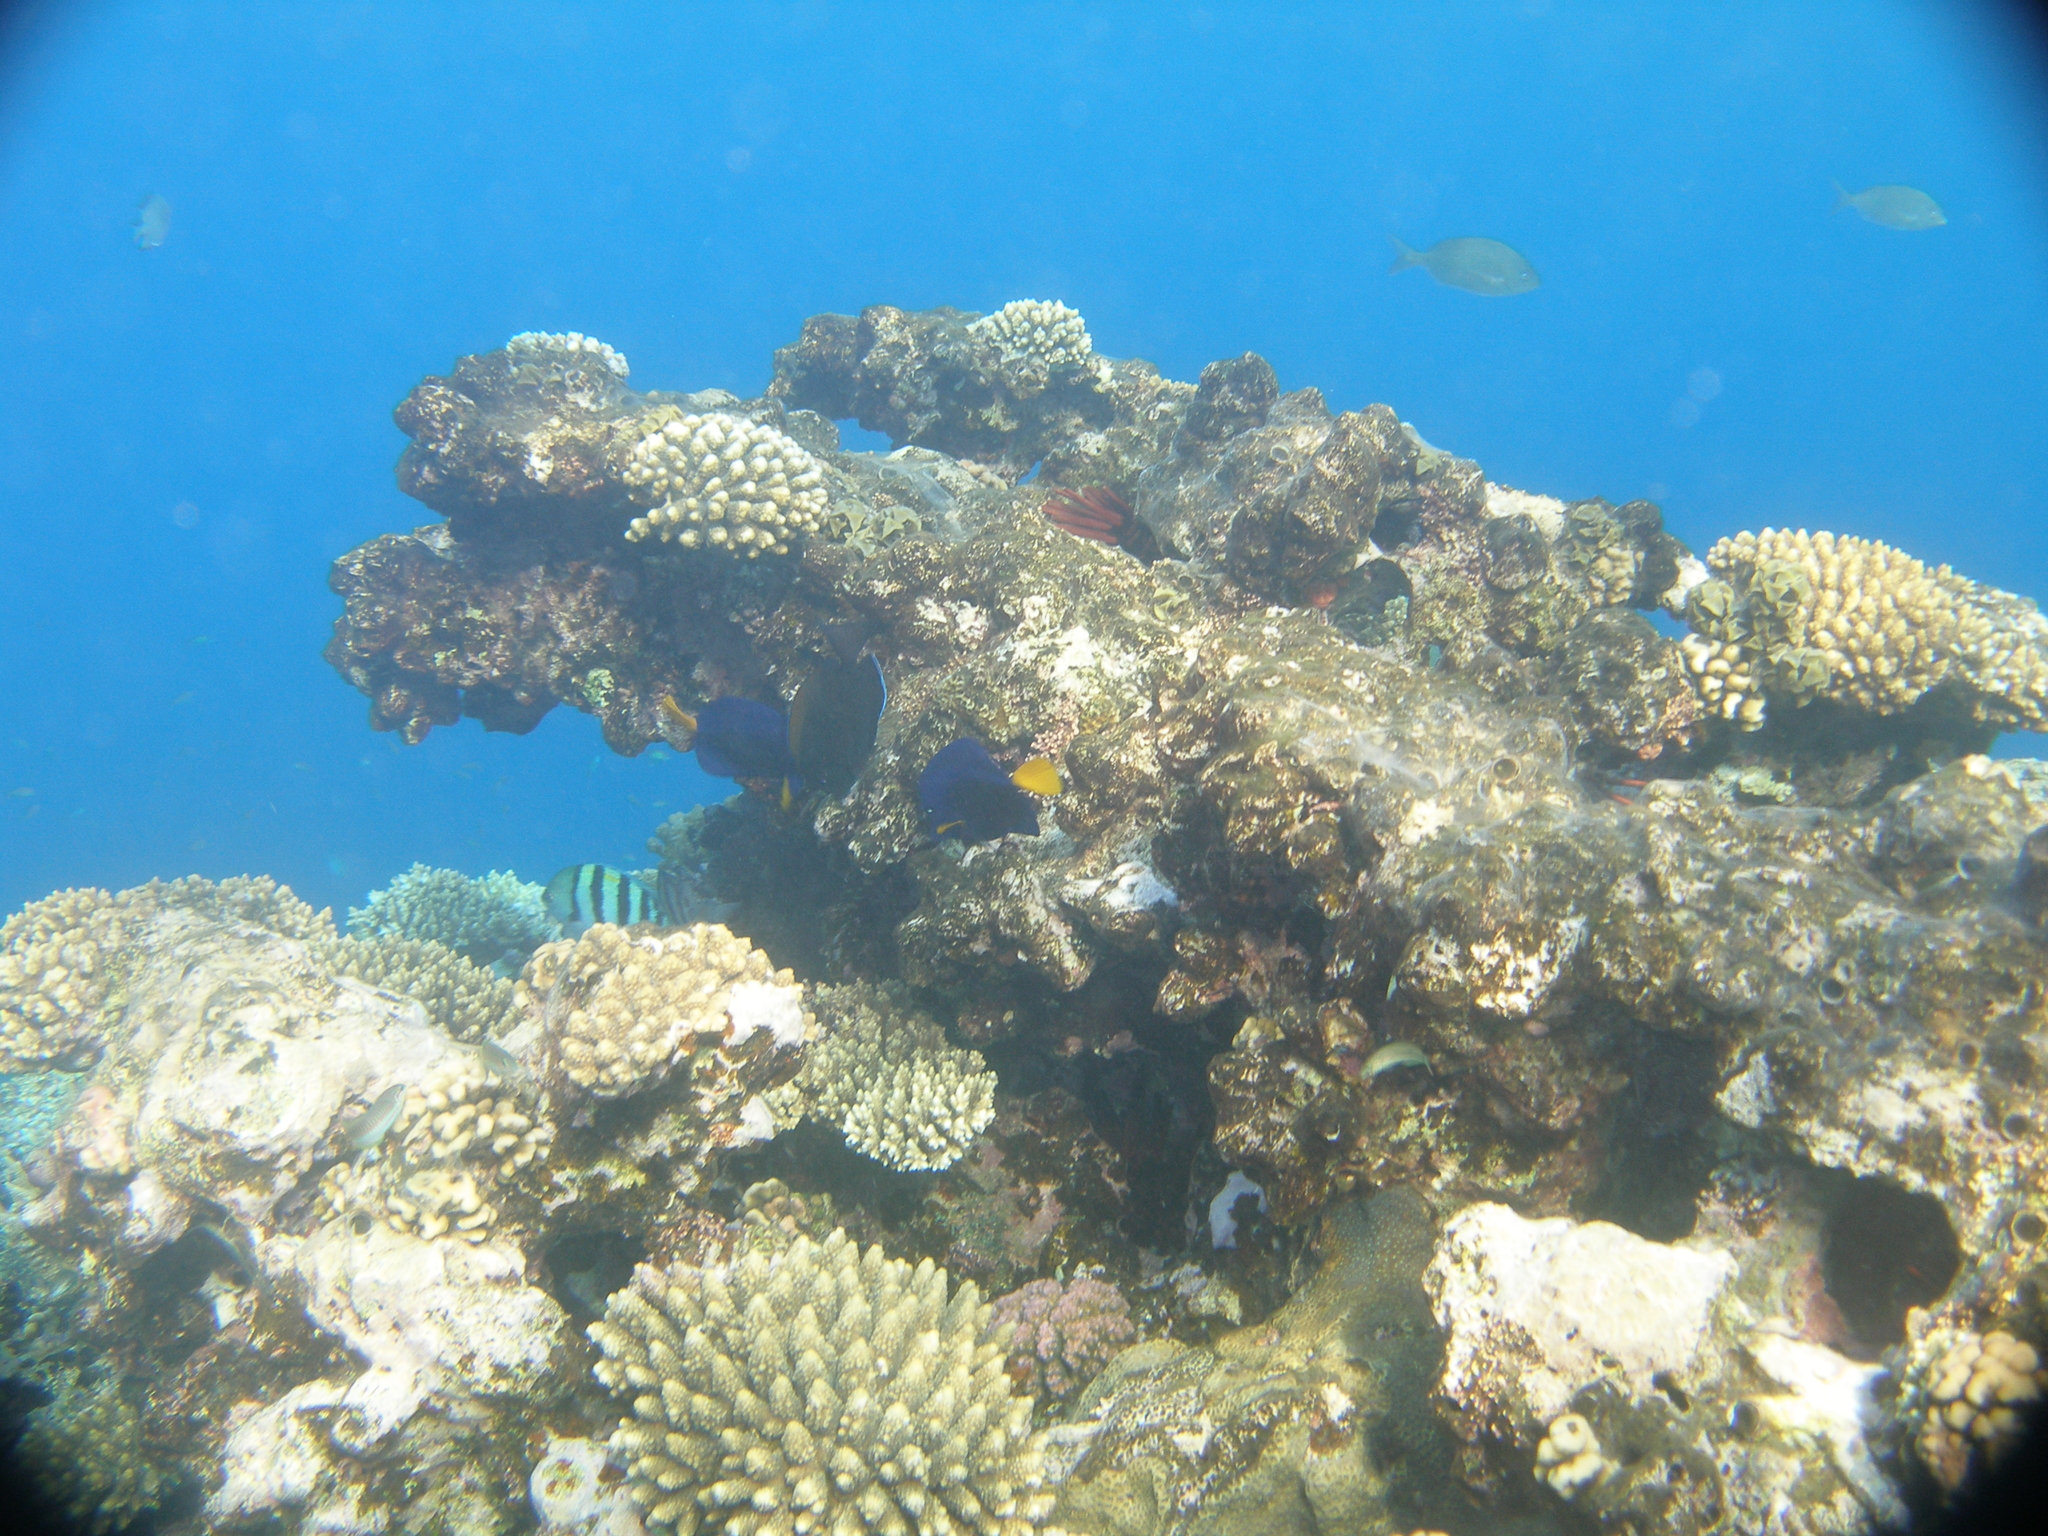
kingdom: Animalia
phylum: Chordata
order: Perciformes
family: Acanthuridae
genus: Zebrasoma
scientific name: Zebrasoma xanthurum
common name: Purple tang
